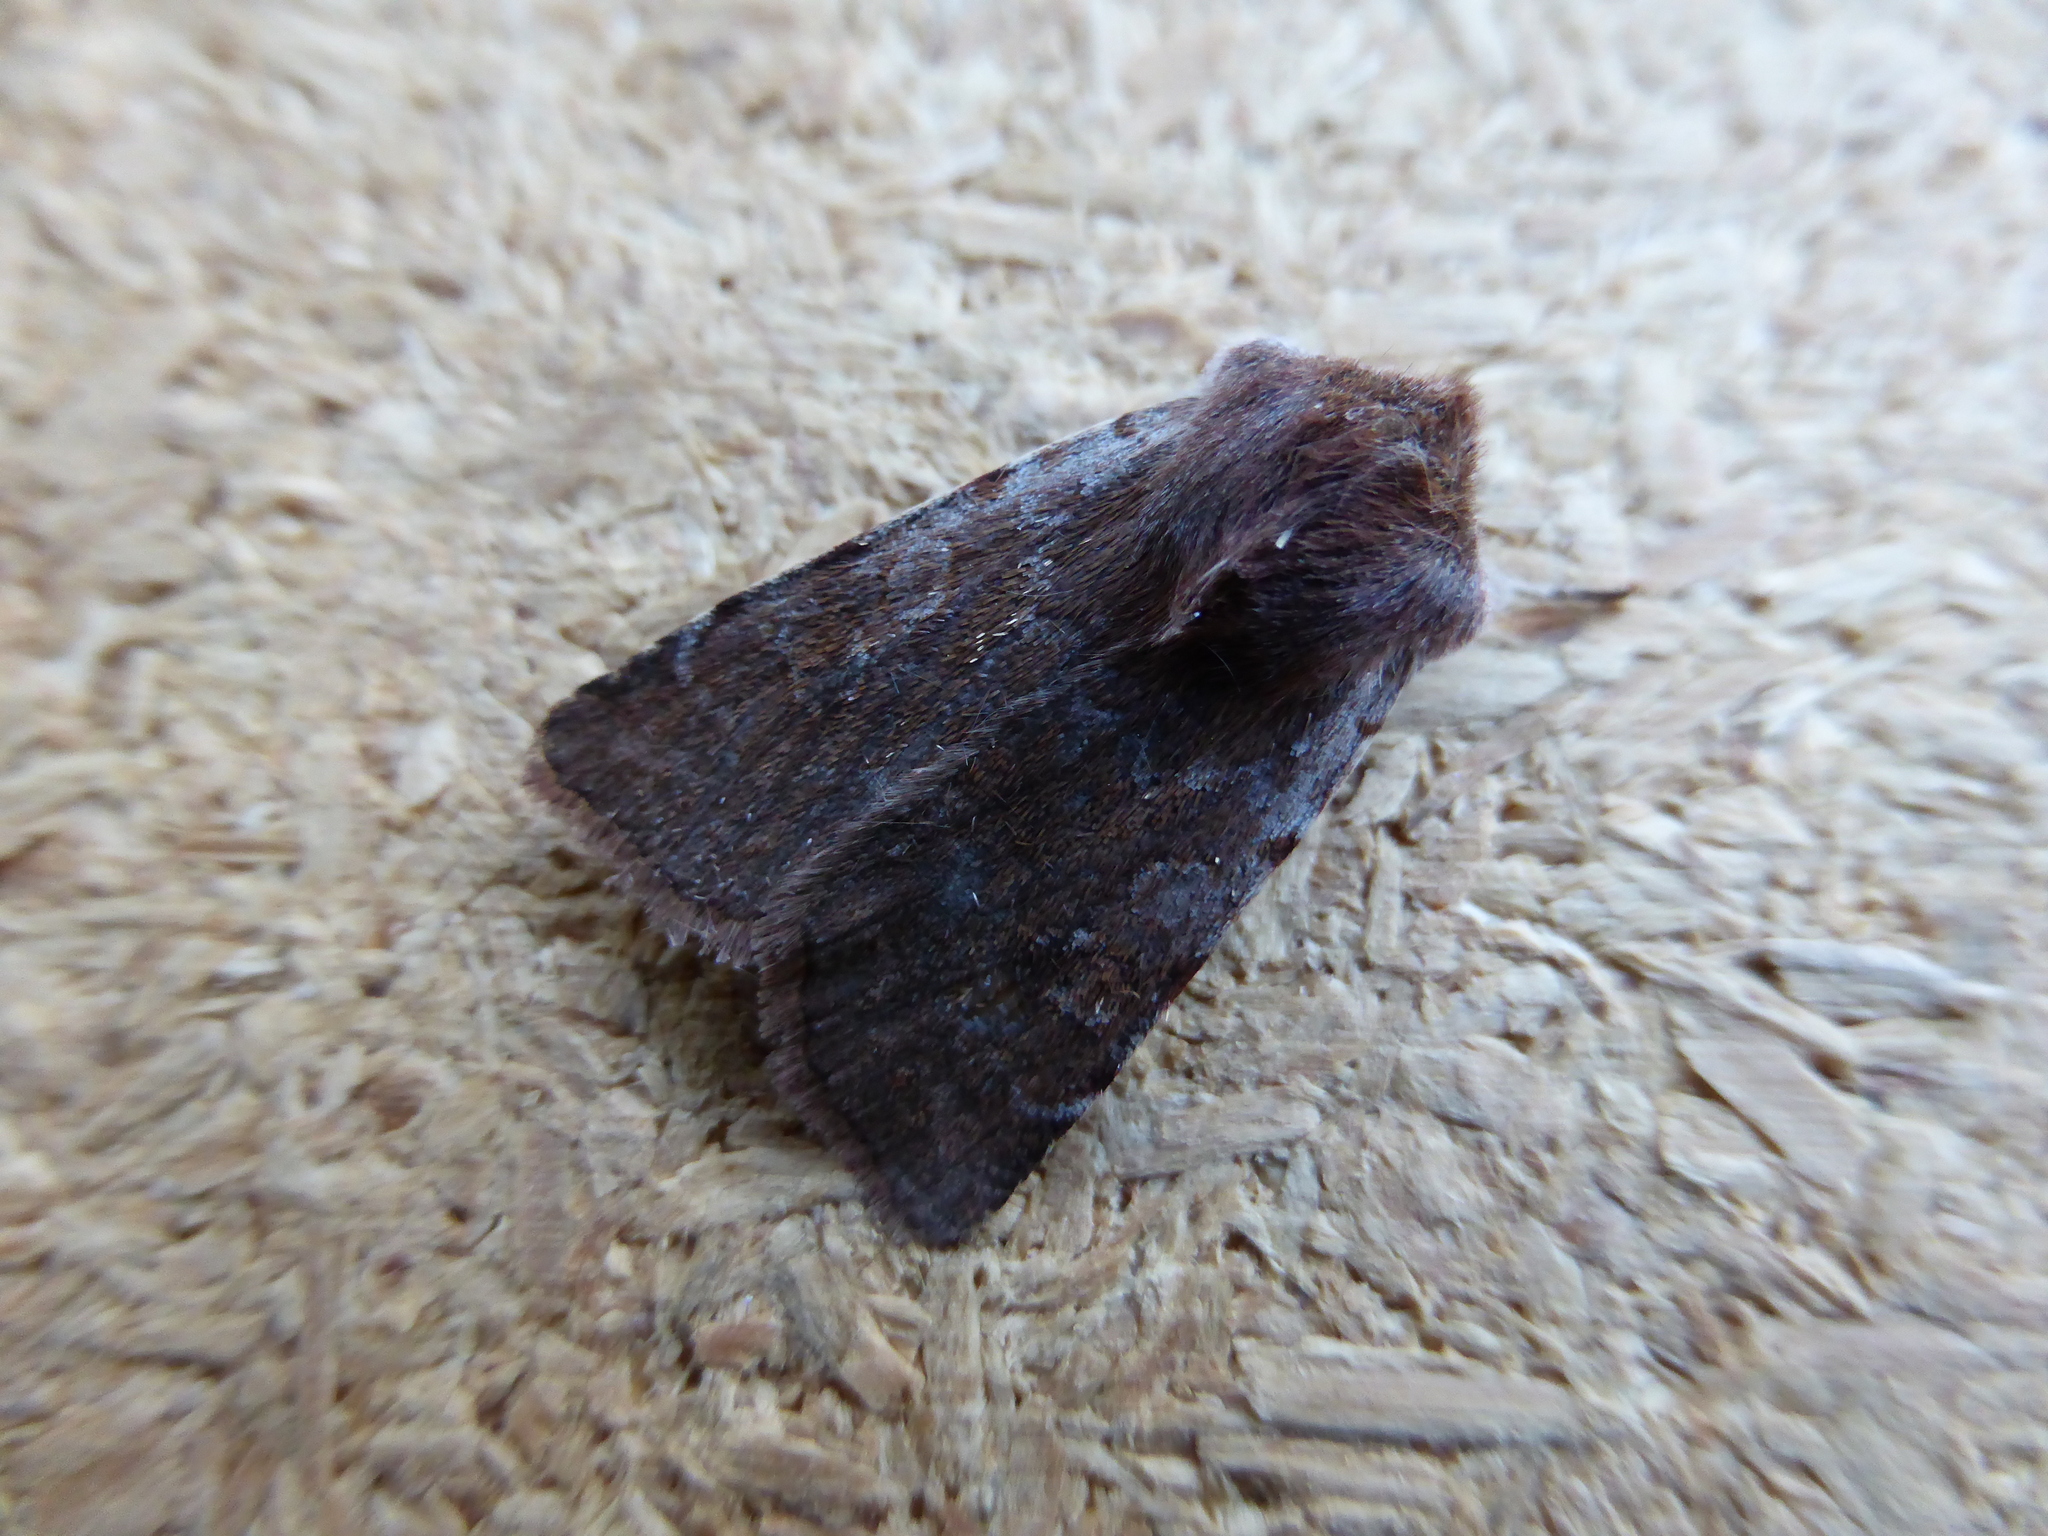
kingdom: Animalia
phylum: Arthropoda
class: Insecta
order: Lepidoptera
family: Noctuidae
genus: Cerastis
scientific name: Cerastis rubricosa
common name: Red chestnut
